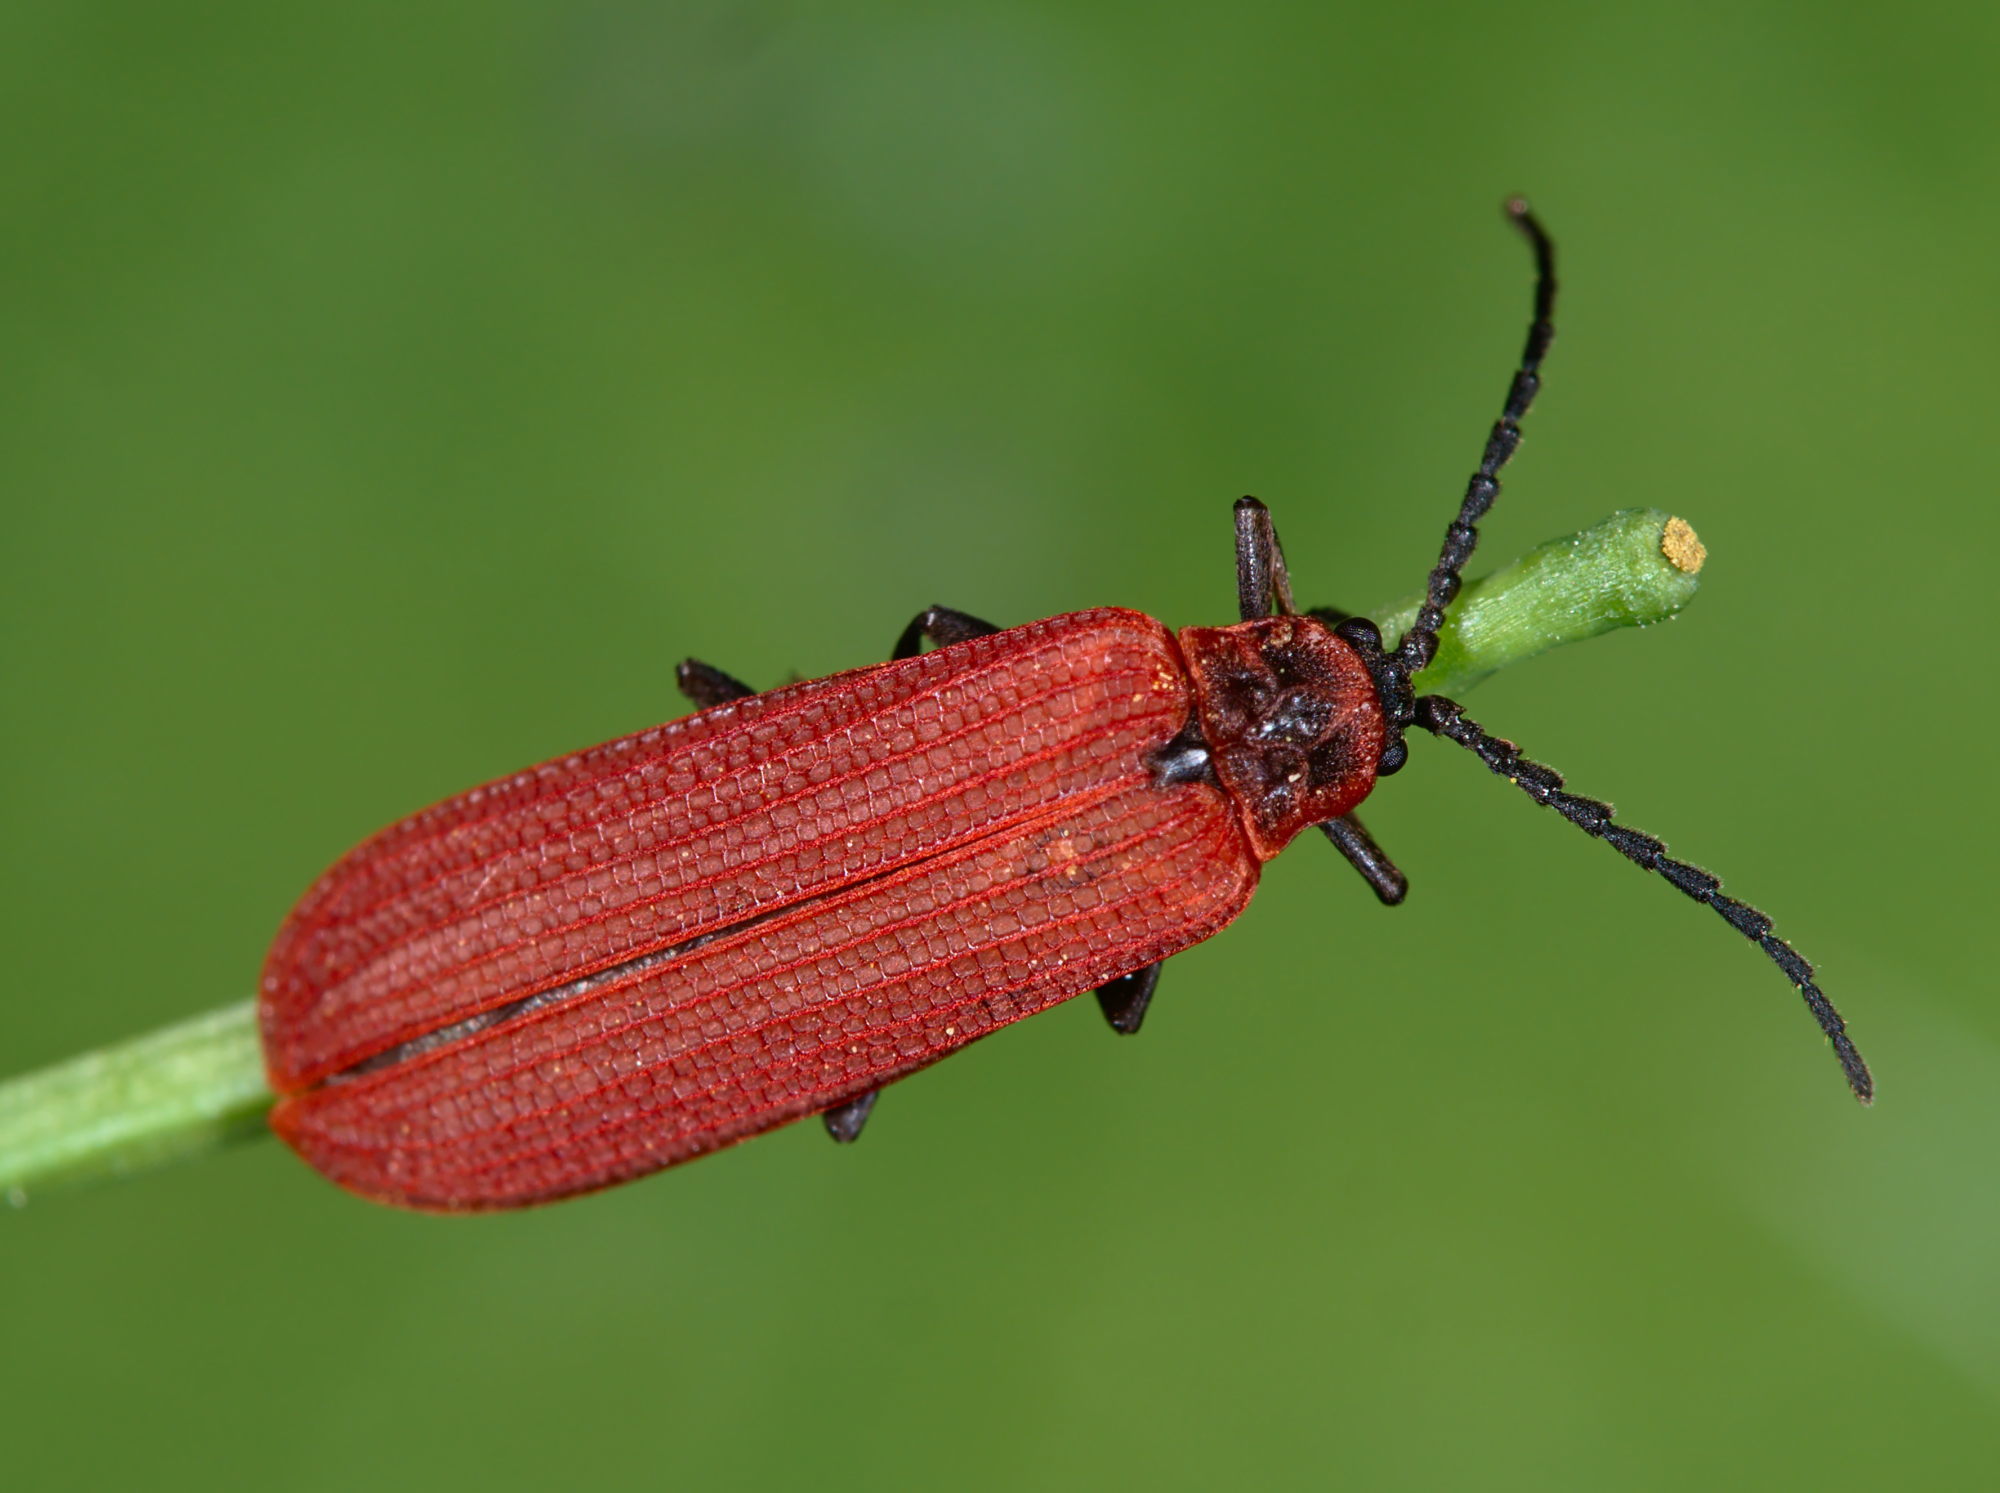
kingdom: Animalia
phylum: Arthropoda
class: Insecta
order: Coleoptera
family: Lycidae
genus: Dictyoptera
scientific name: Dictyoptera aurora
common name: Golden net-winged beetle
